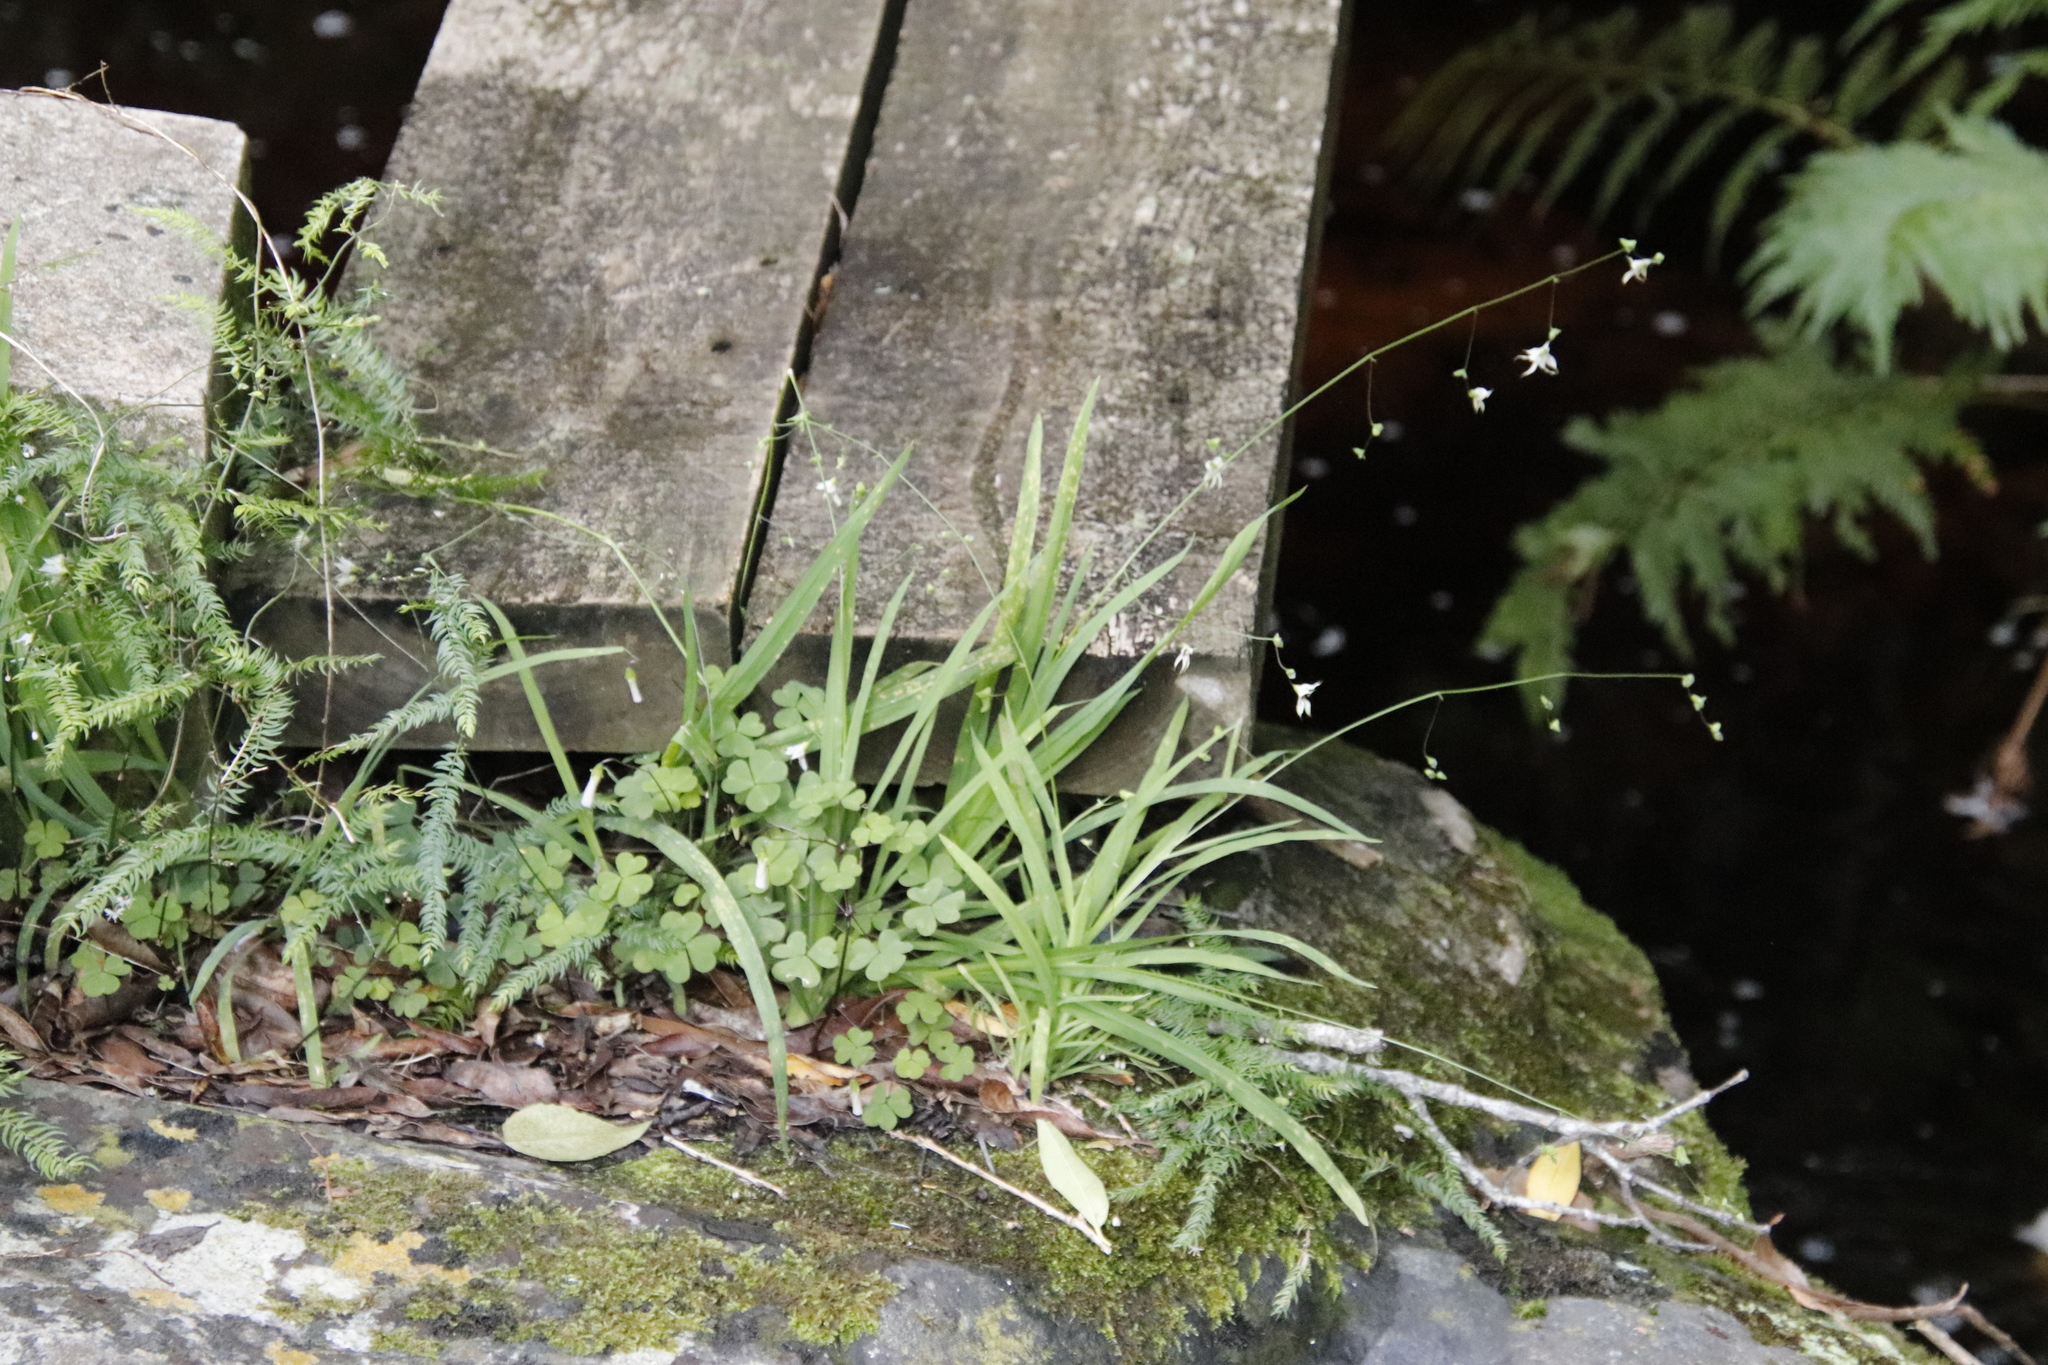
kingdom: Plantae
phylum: Tracheophyta
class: Liliopsida
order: Asparagales
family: Iridaceae
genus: Melasphaerula
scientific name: Melasphaerula graminea
